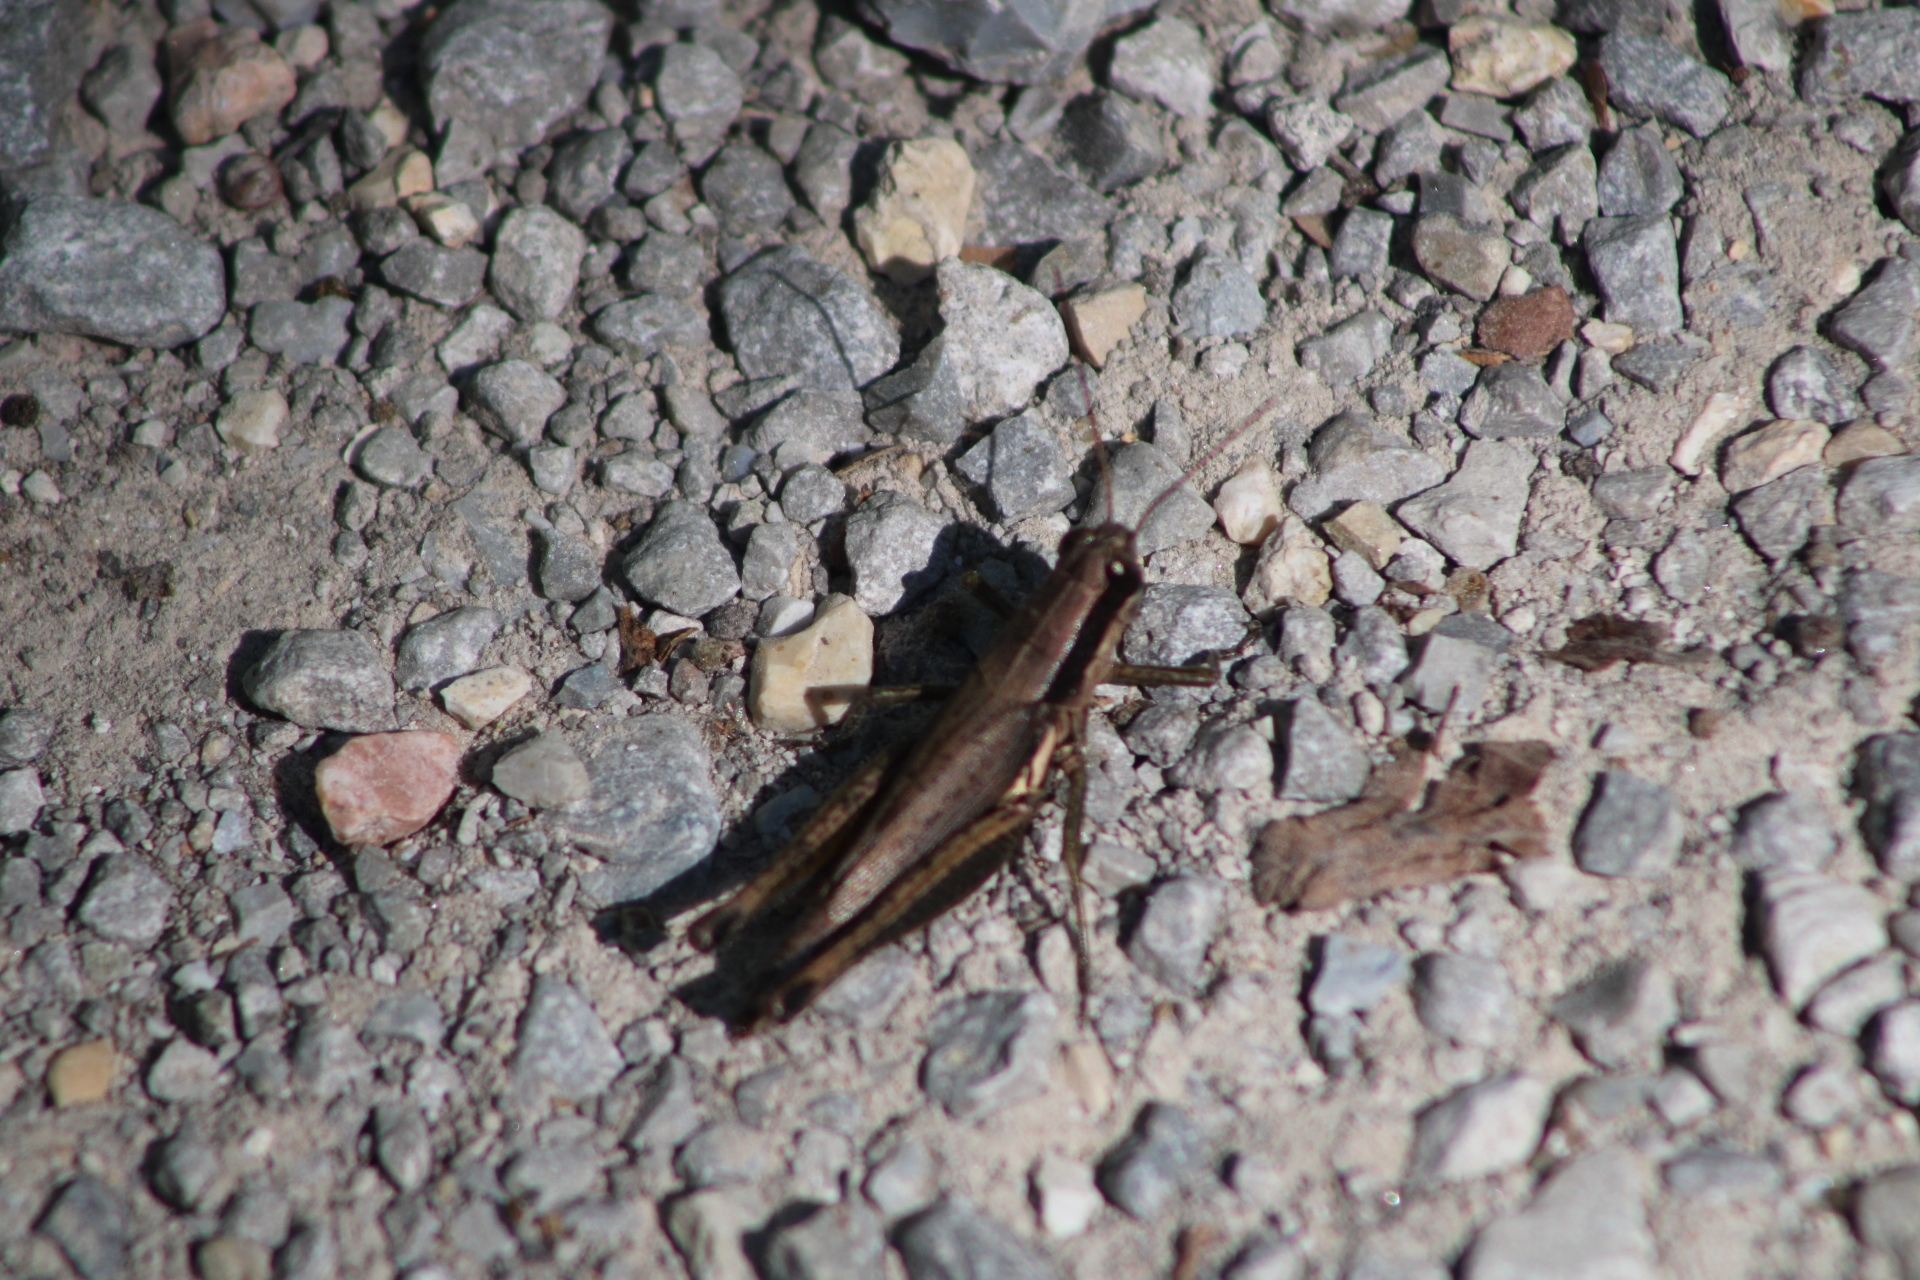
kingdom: Animalia
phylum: Arthropoda
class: Insecta
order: Orthoptera
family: Acrididae
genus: Paroxya
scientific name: Paroxya clavuligera
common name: Olive-green swamp grasshopper
